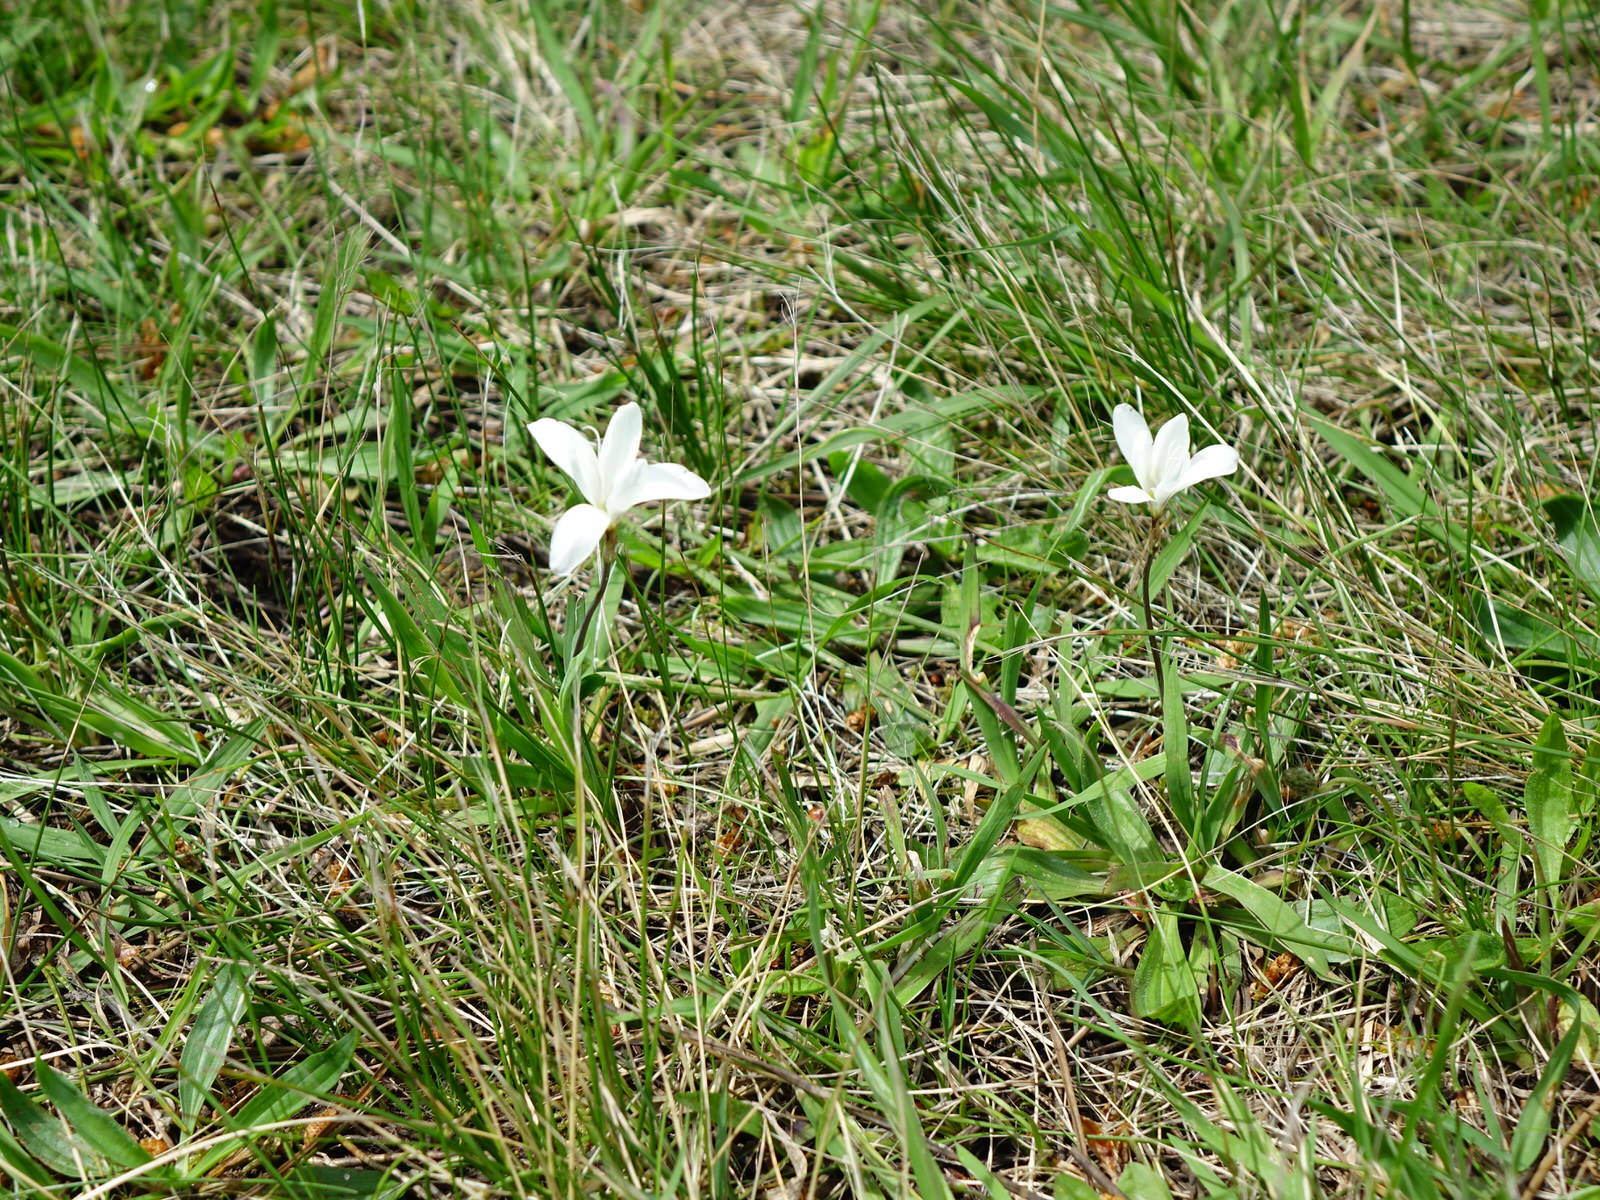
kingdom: Plantae
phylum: Tracheophyta
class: Liliopsida
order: Asparagales
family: Iridaceae
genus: Sparaxis
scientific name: Sparaxis bulbifera
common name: Harlequin-flower
